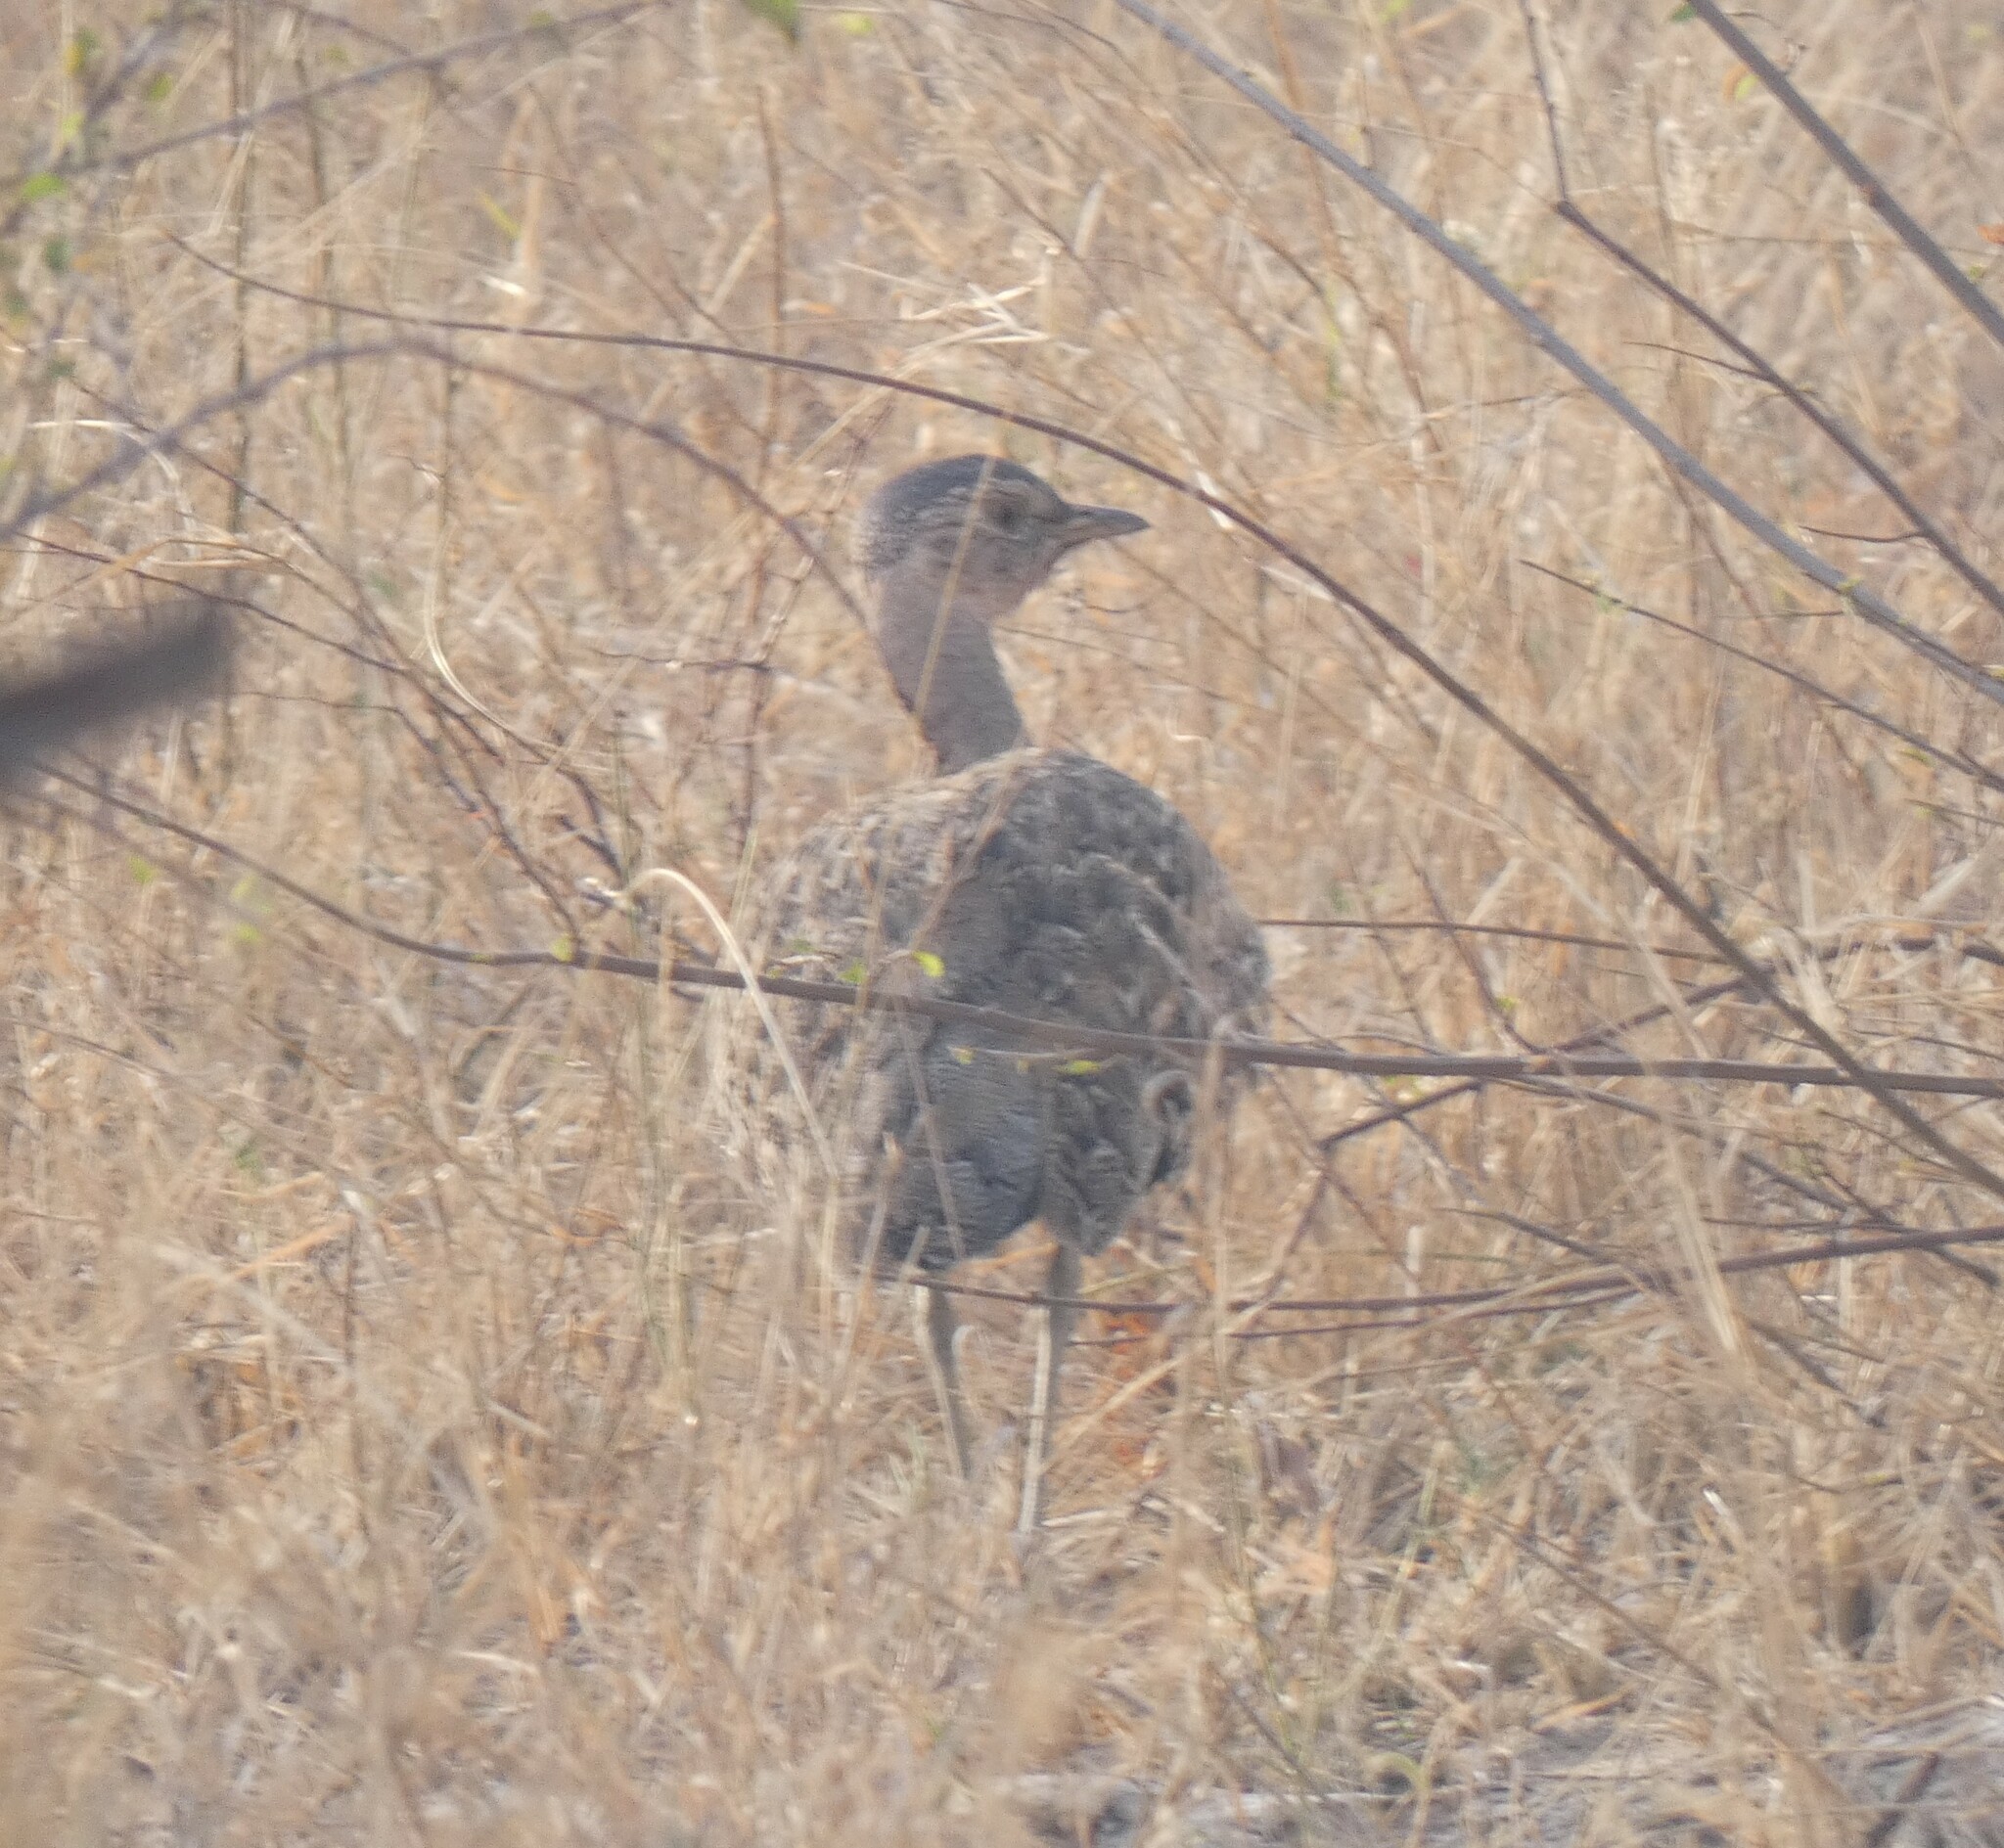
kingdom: Animalia
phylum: Chordata
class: Aves
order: Otidiformes
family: Otididae
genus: Lophotis
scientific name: Lophotis ruficrista
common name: Red-crested korhaan
